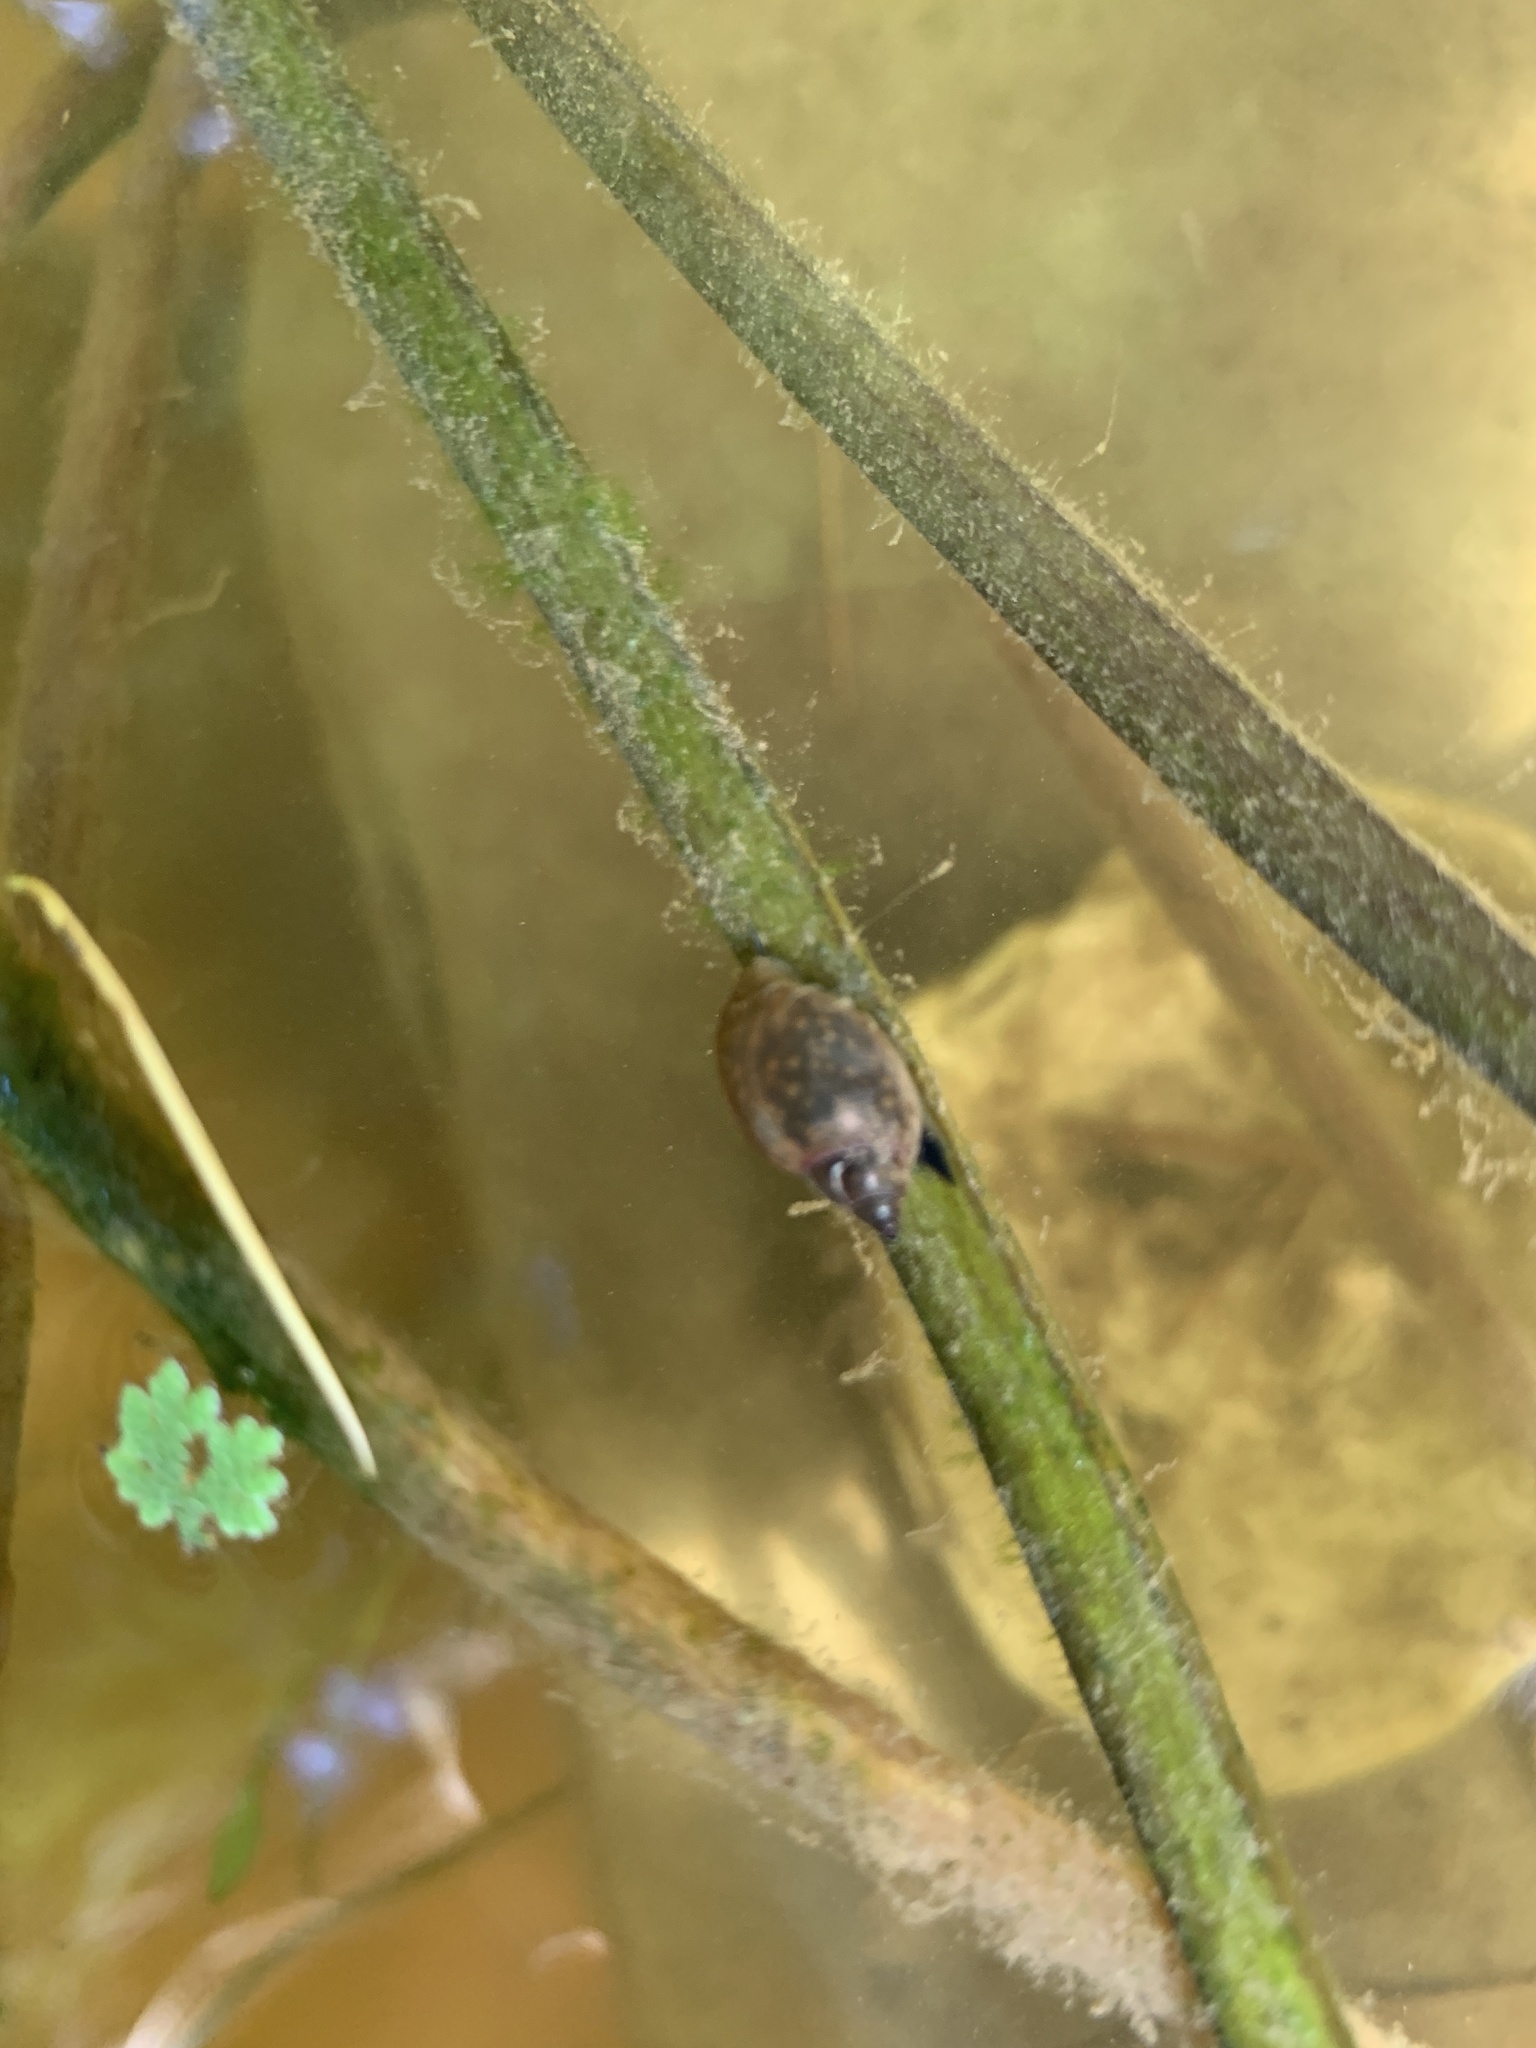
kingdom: Animalia
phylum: Mollusca
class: Gastropoda
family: Physidae
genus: Physella
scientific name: Physella acuta
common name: European physa
